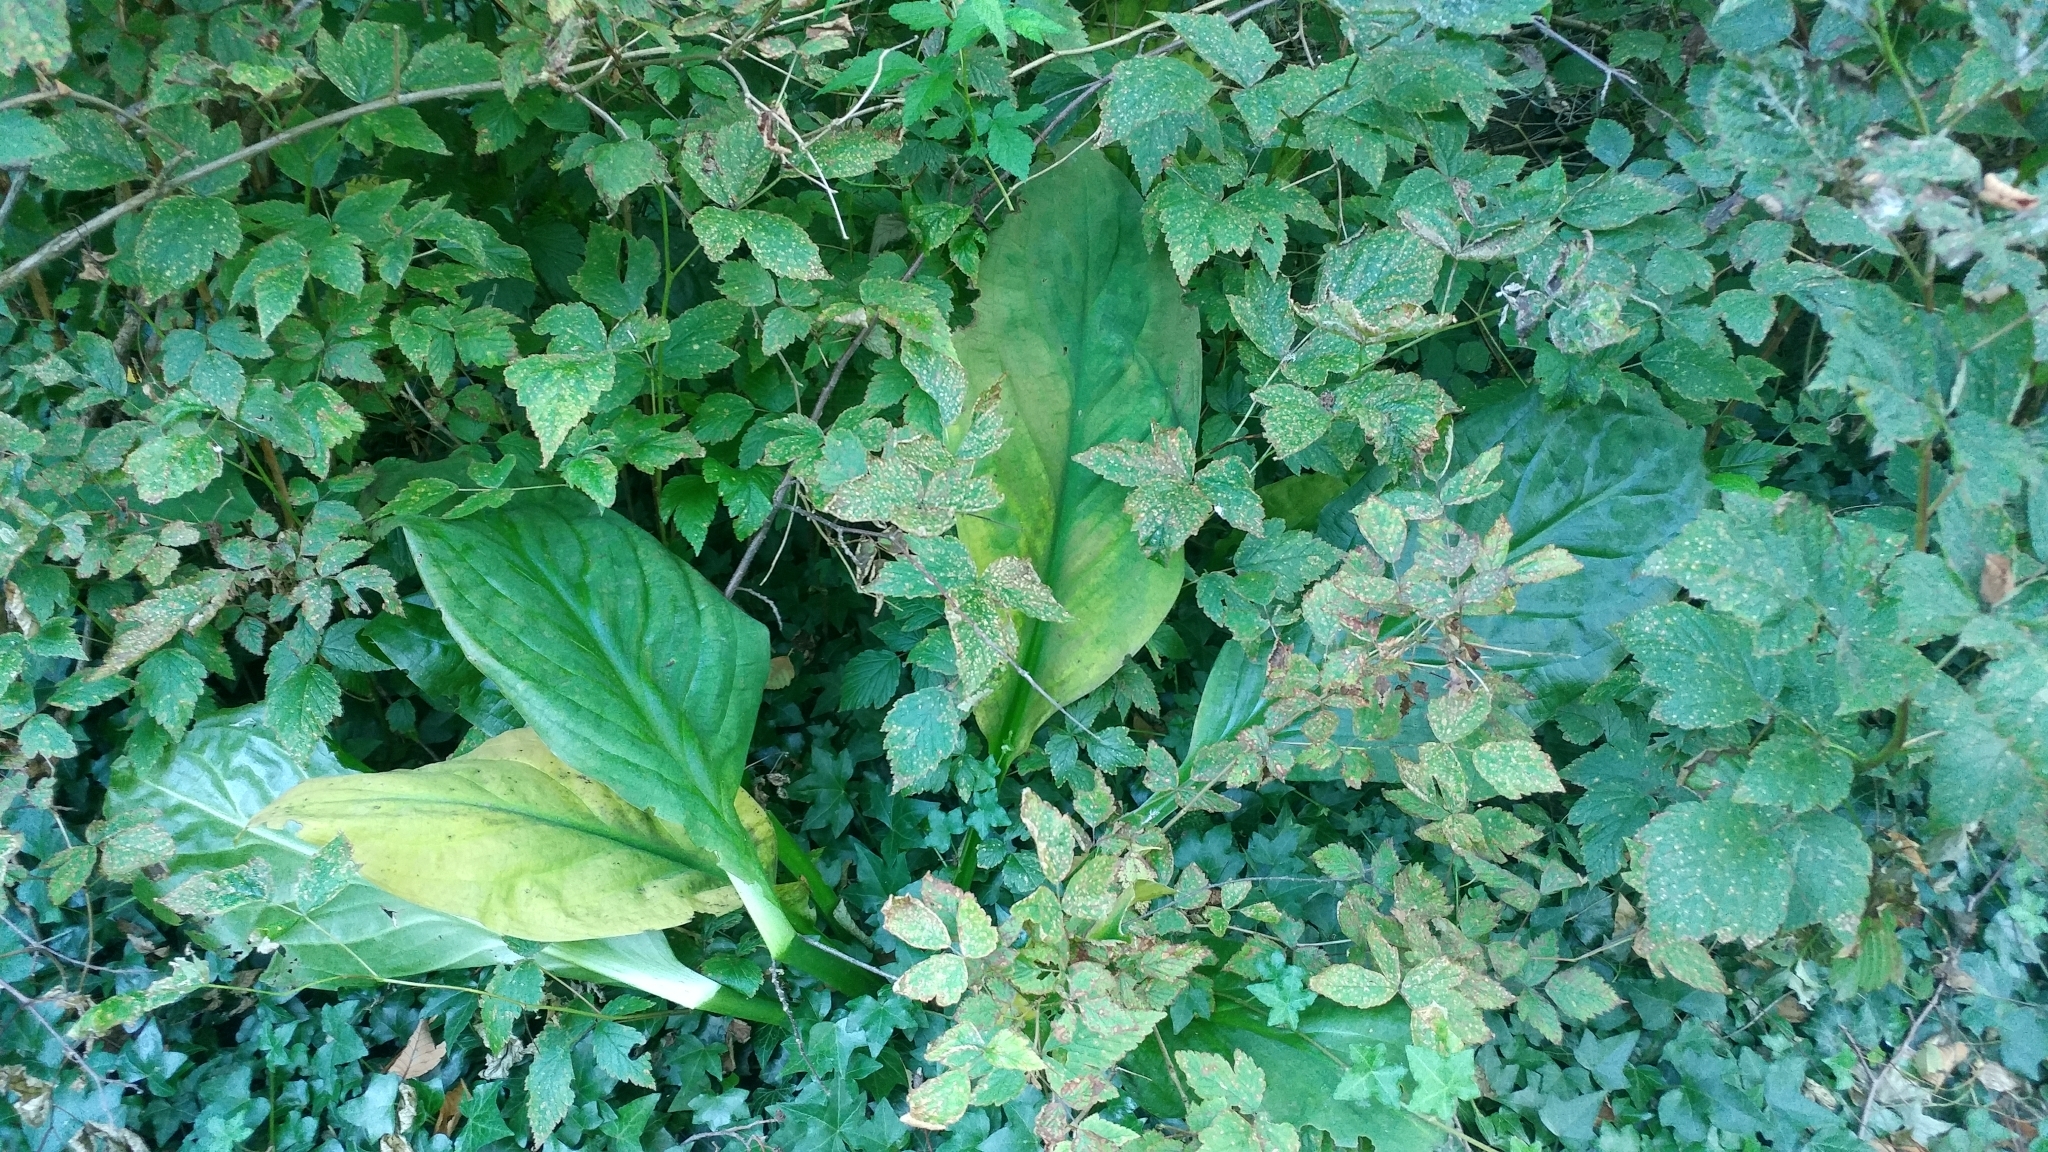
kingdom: Plantae
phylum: Tracheophyta
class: Liliopsida
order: Alismatales
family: Araceae
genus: Lysichiton
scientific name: Lysichiton americanus
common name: American skunk cabbage
